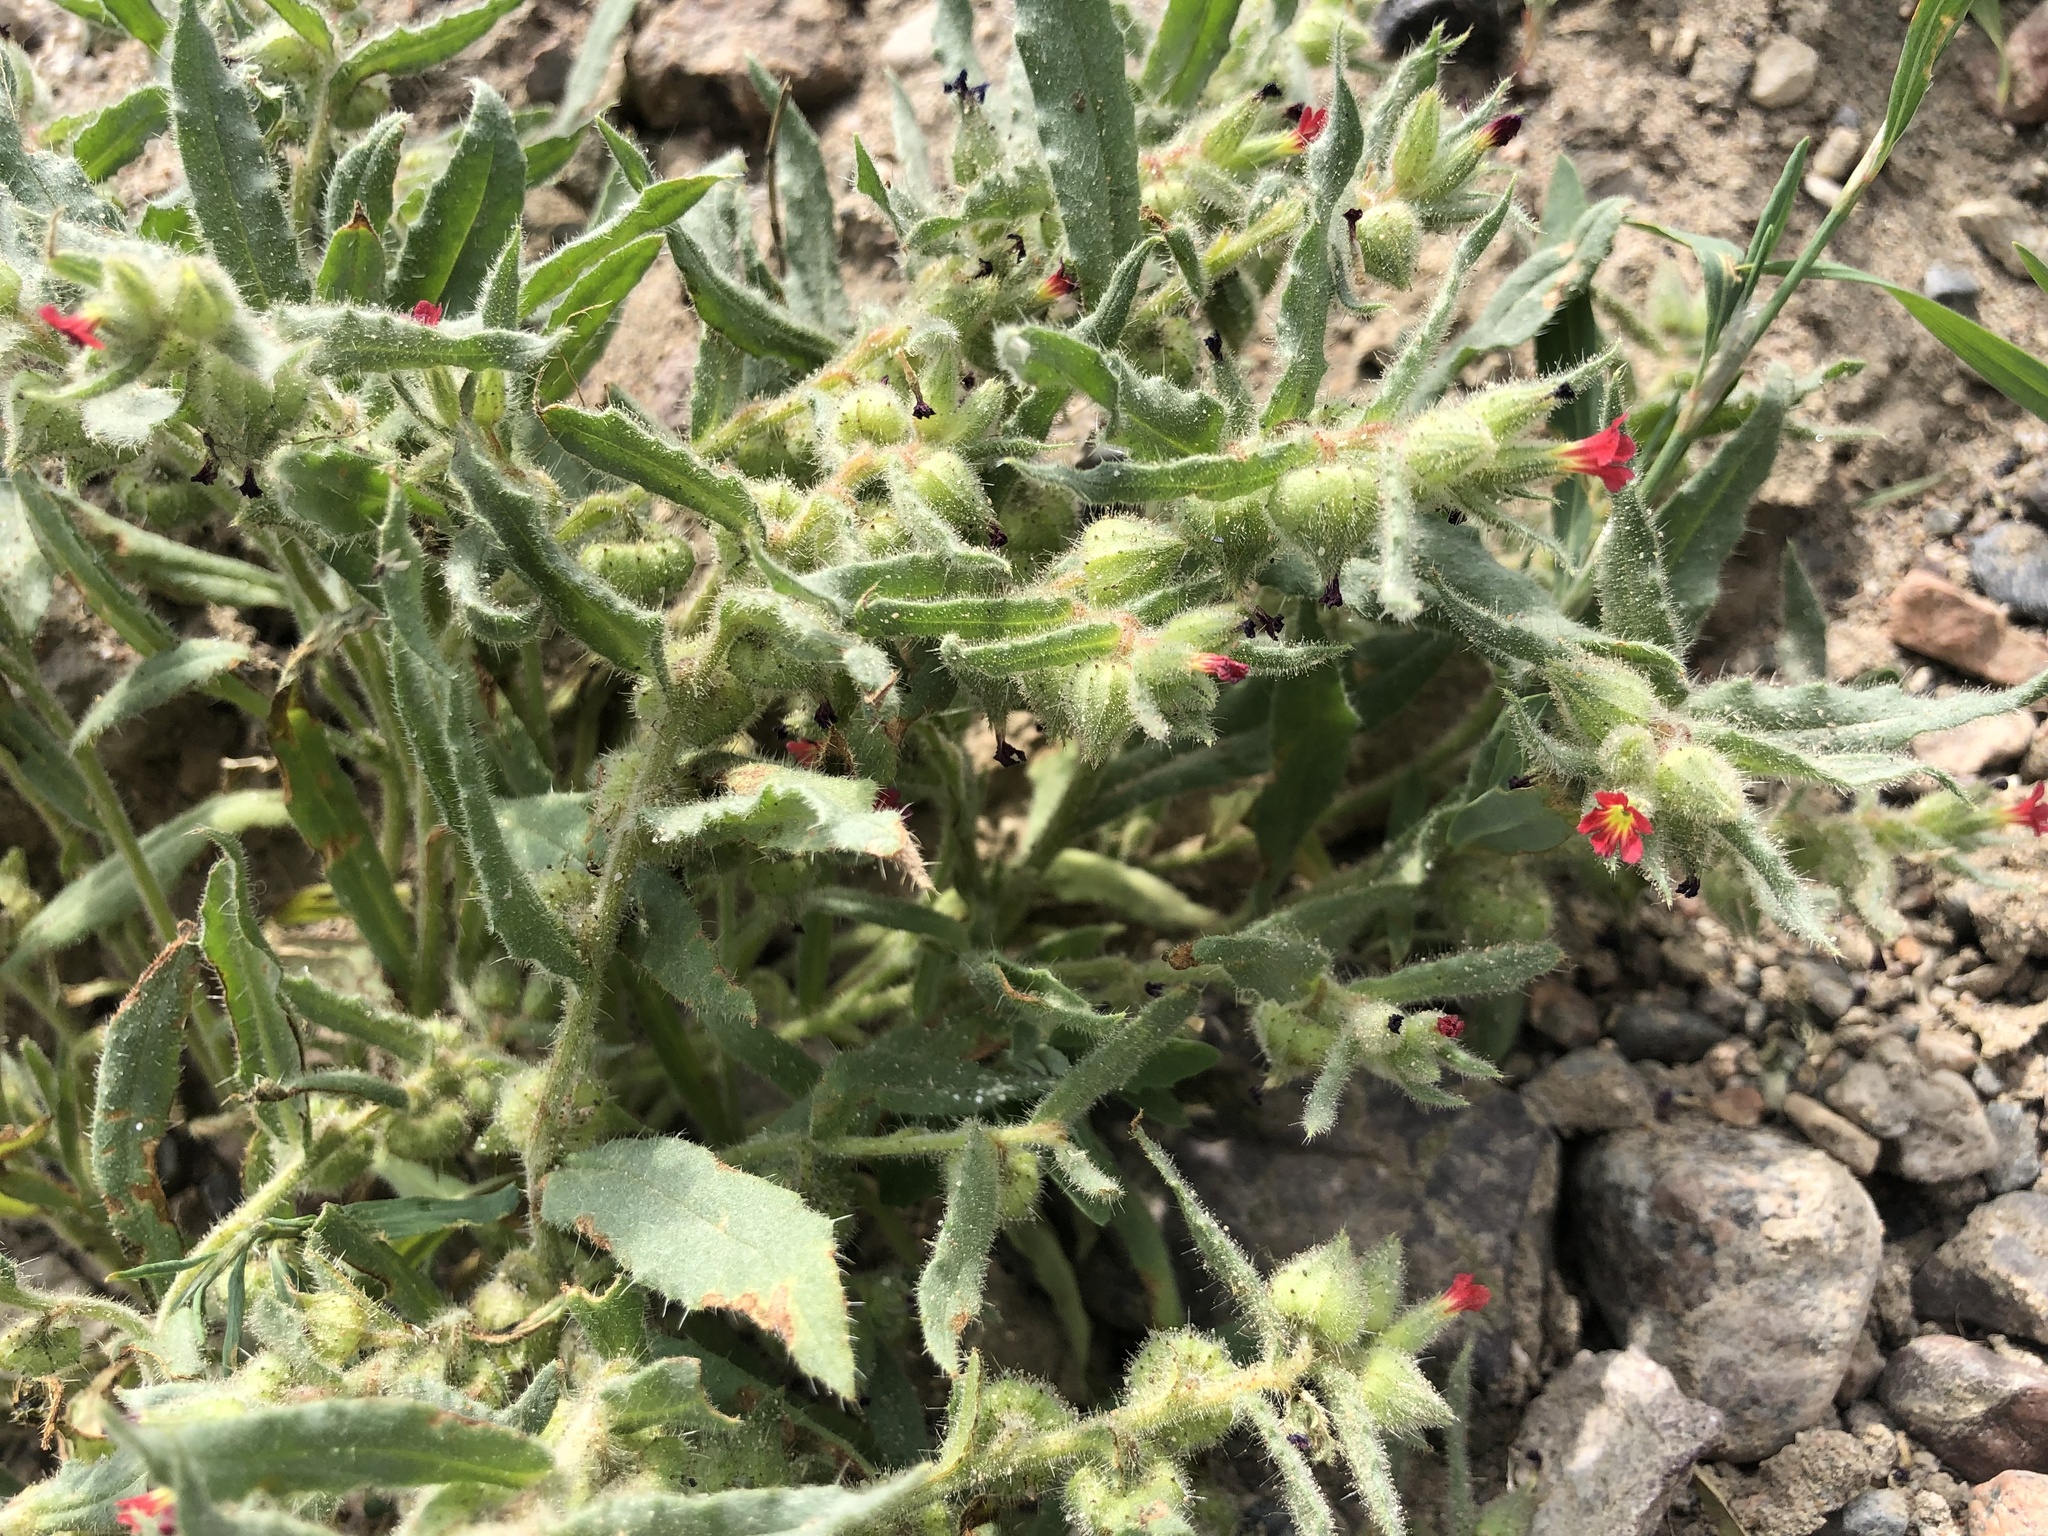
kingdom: Plantae
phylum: Tracheophyta
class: Magnoliopsida
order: Boraginales
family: Boraginaceae
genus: Nonea
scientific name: Nonea caspica
